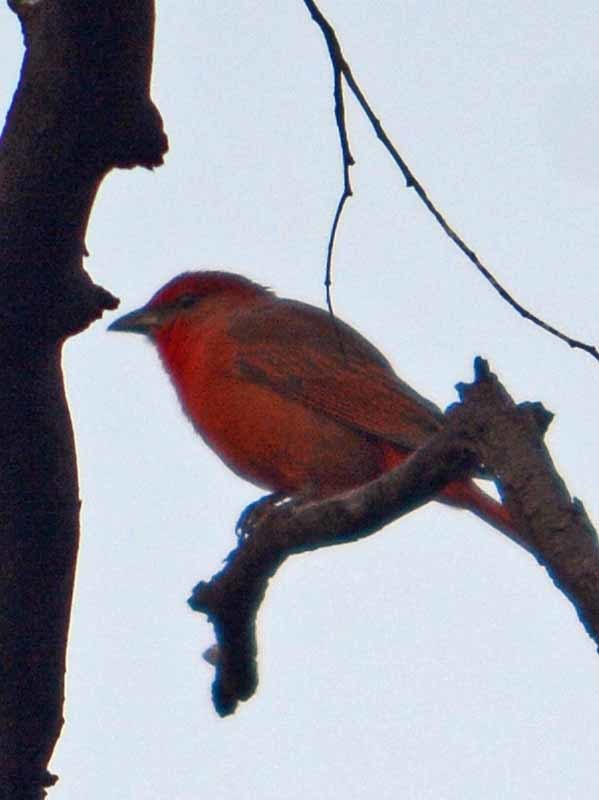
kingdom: Animalia
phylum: Chordata
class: Aves
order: Passeriformes
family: Cardinalidae
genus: Piranga
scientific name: Piranga flava
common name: Red tanager
